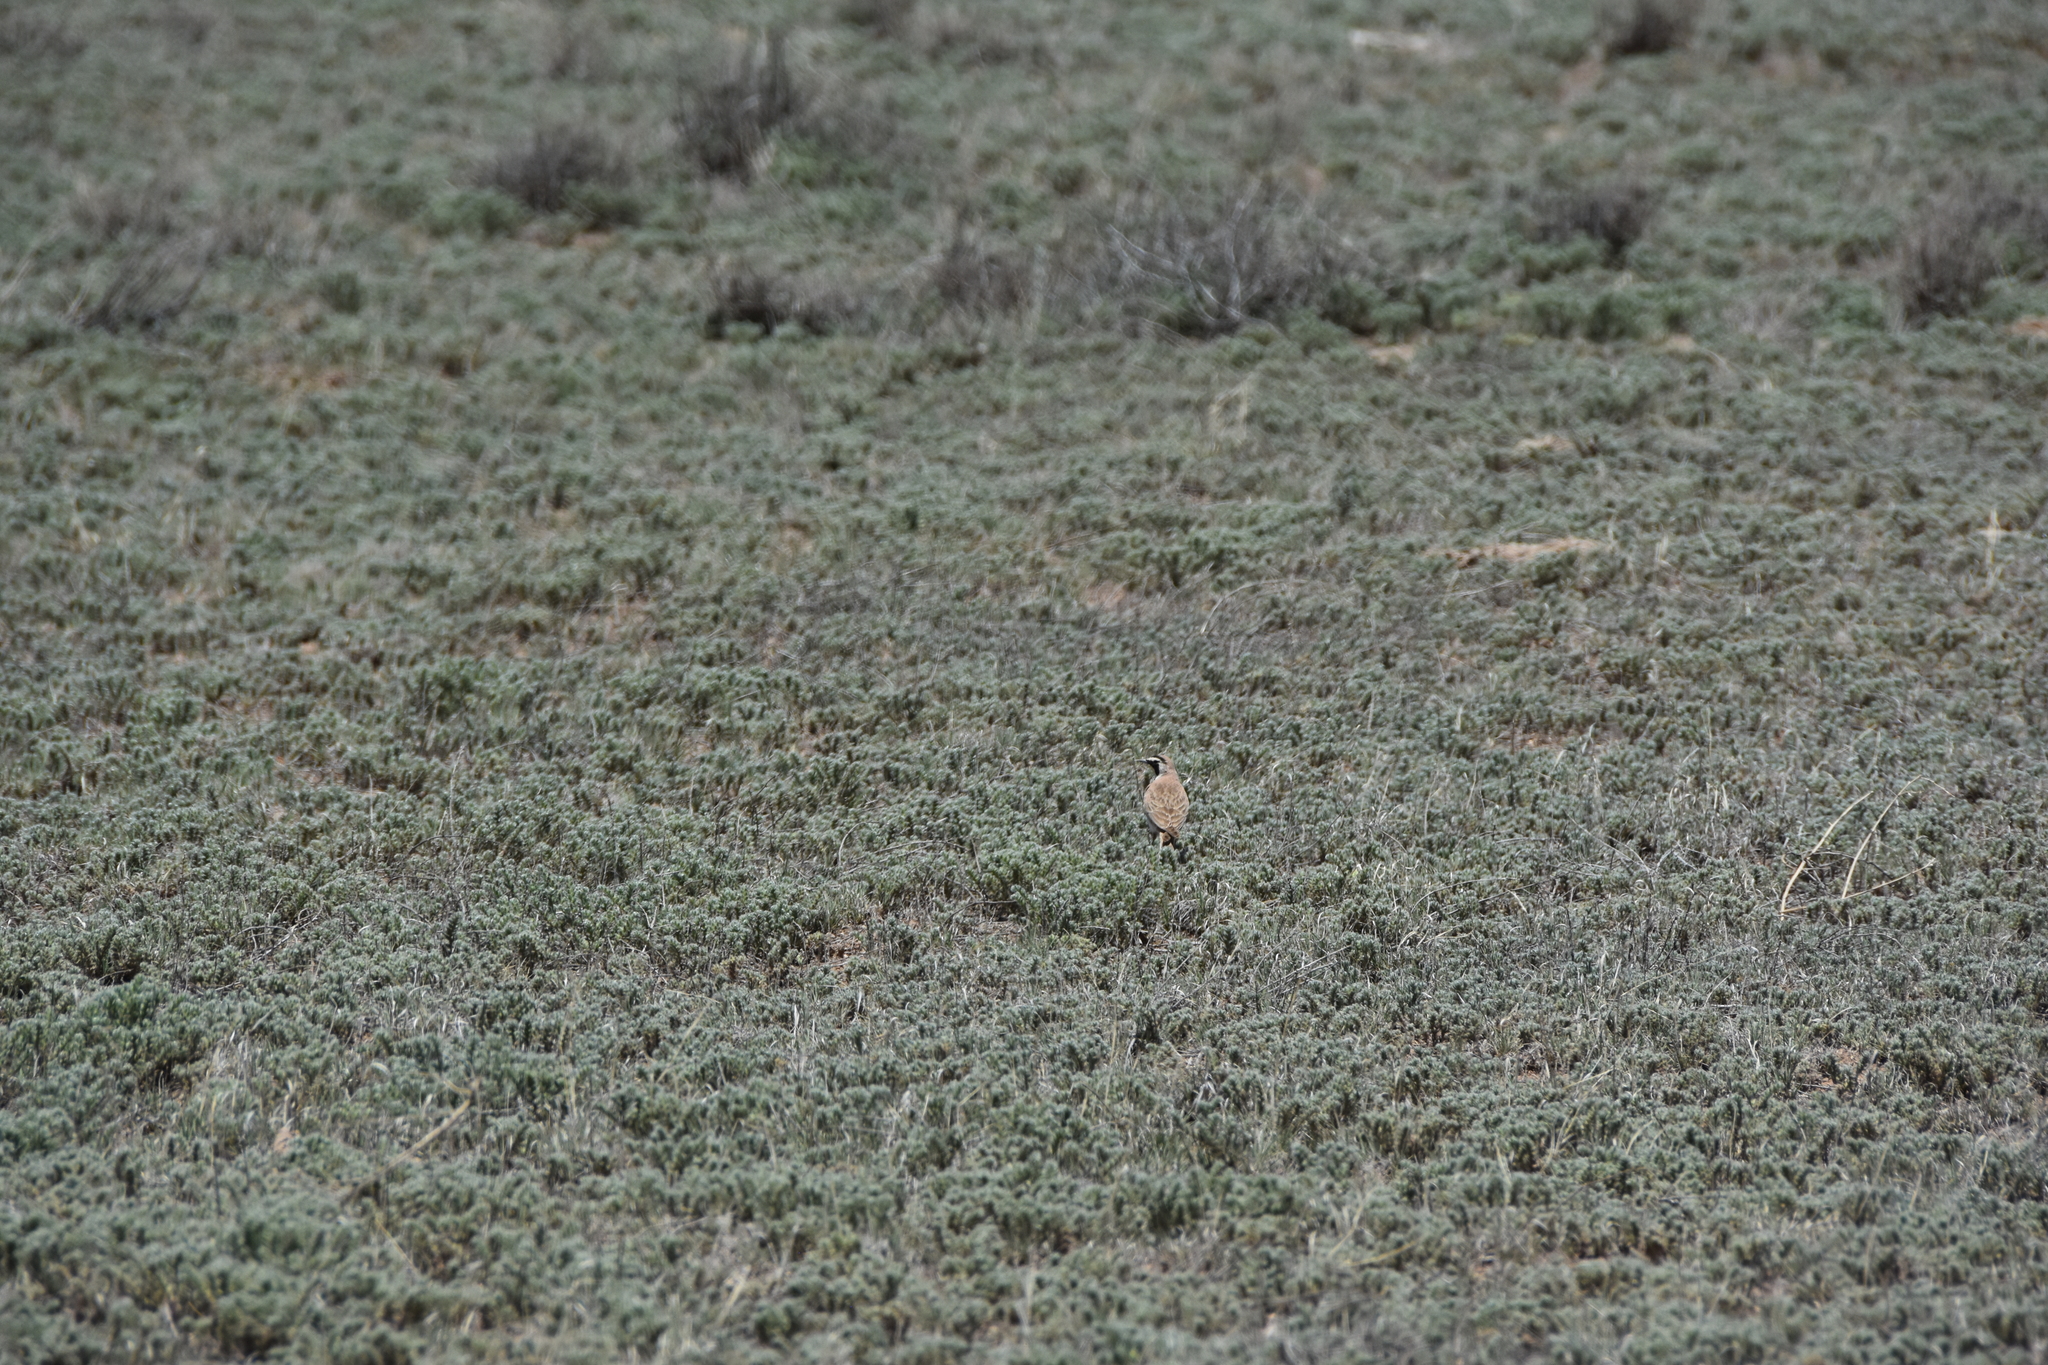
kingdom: Animalia
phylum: Chordata
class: Aves
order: Passeriformes
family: Alaudidae
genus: Eremophila
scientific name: Eremophila alpestris
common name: Horned lark
